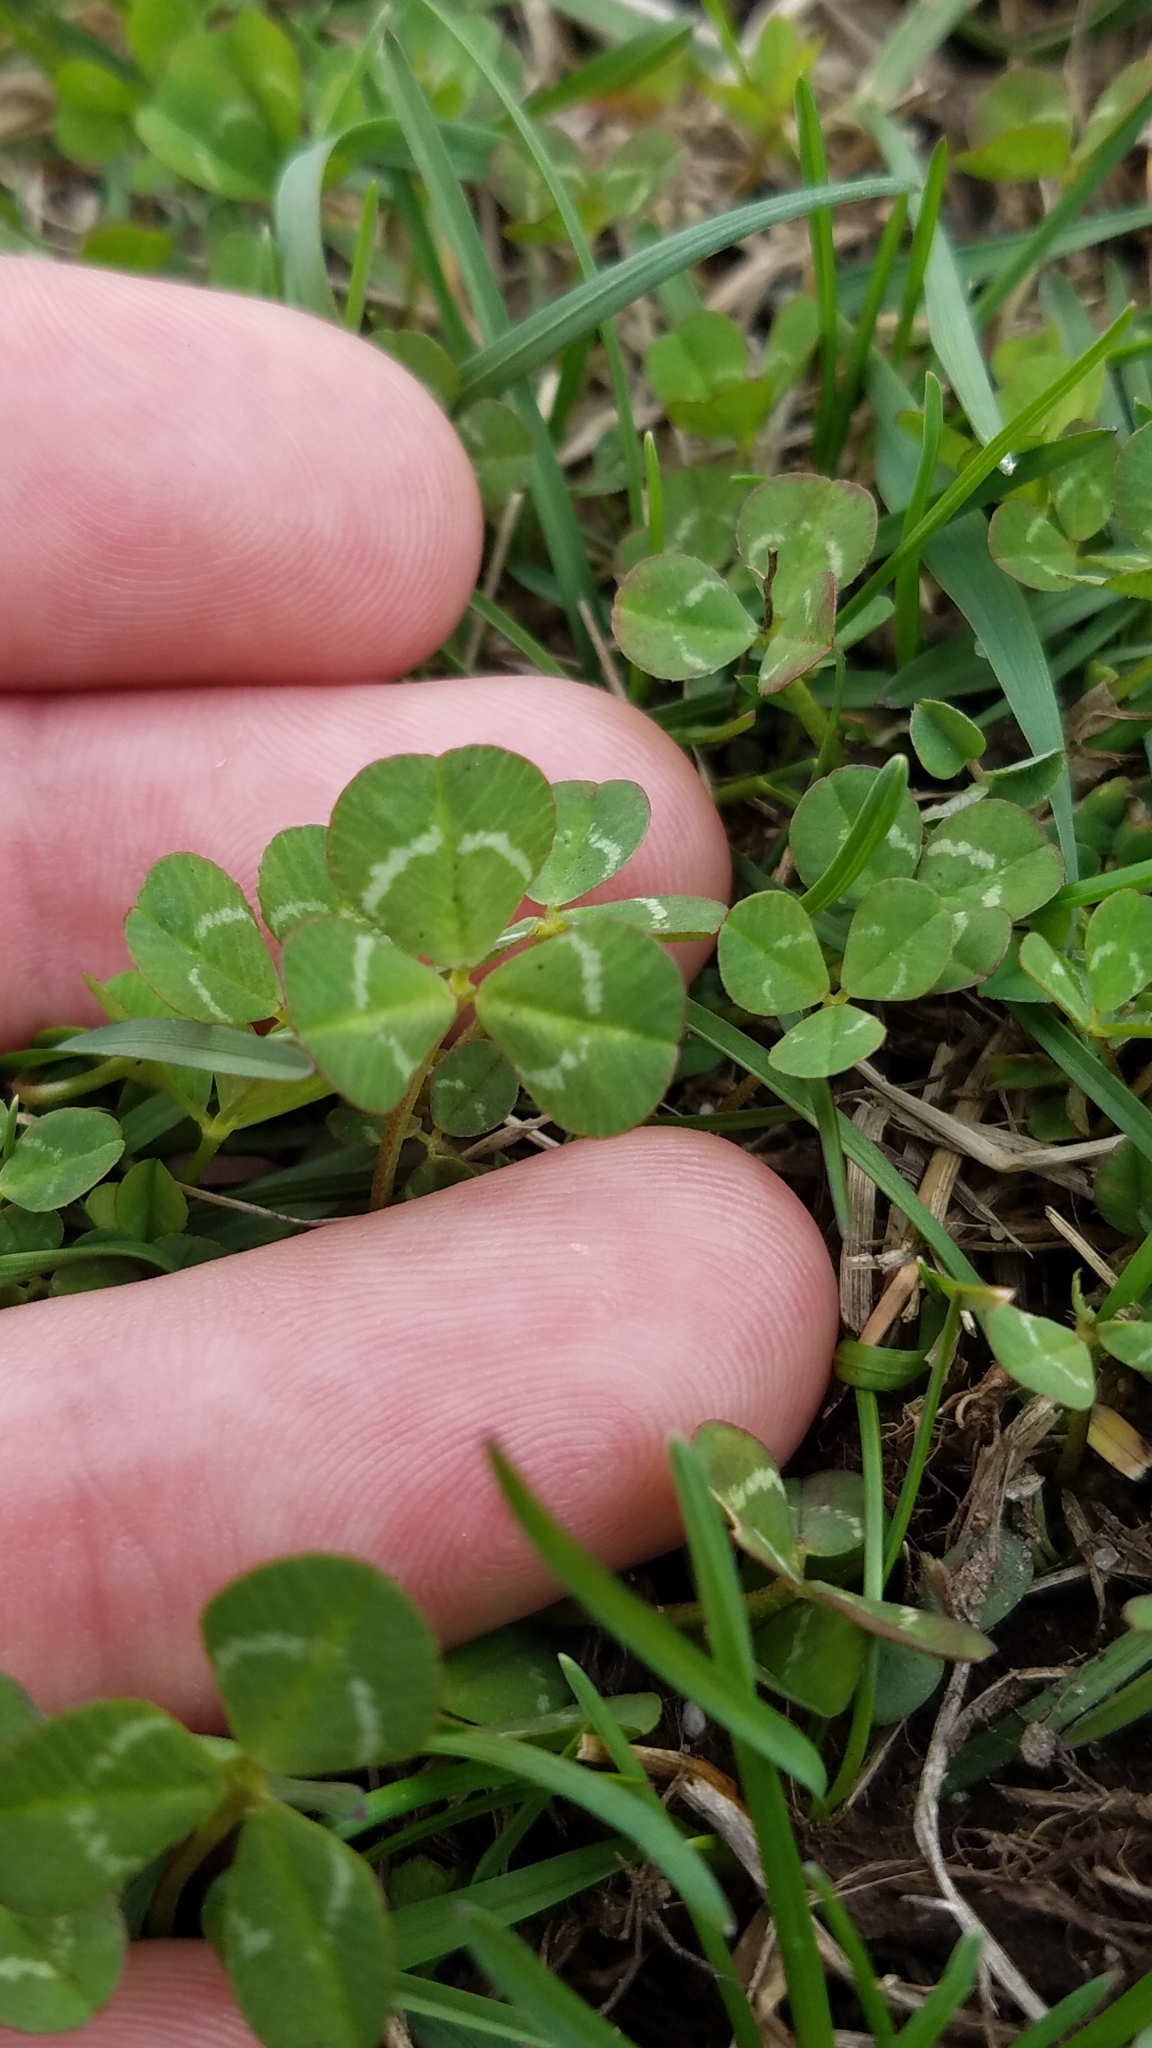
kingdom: Plantae
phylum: Tracheophyta
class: Magnoliopsida
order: Fabales
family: Fabaceae
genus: Trifolium
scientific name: Trifolium repens
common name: White clover
